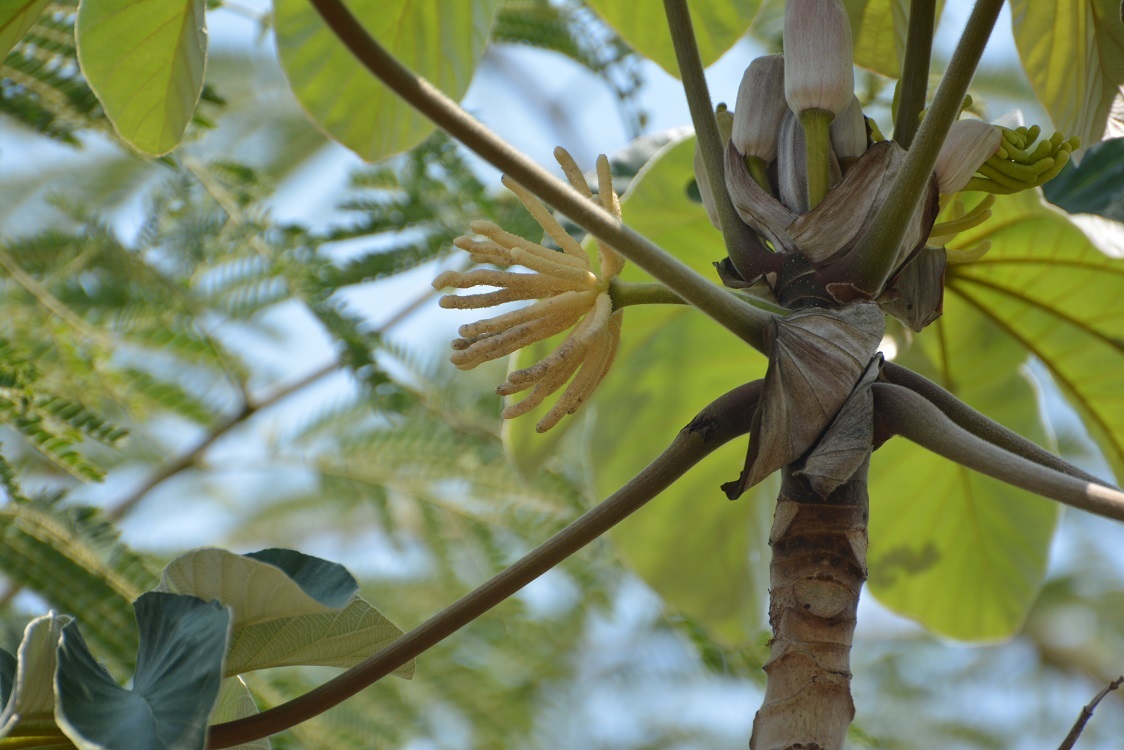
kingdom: Plantae
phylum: Tracheophyta
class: Magnoliopsida
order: Rosales
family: Urticaceae
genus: Cecropia
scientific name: Cecropia peltata
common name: Trumpet-tree
